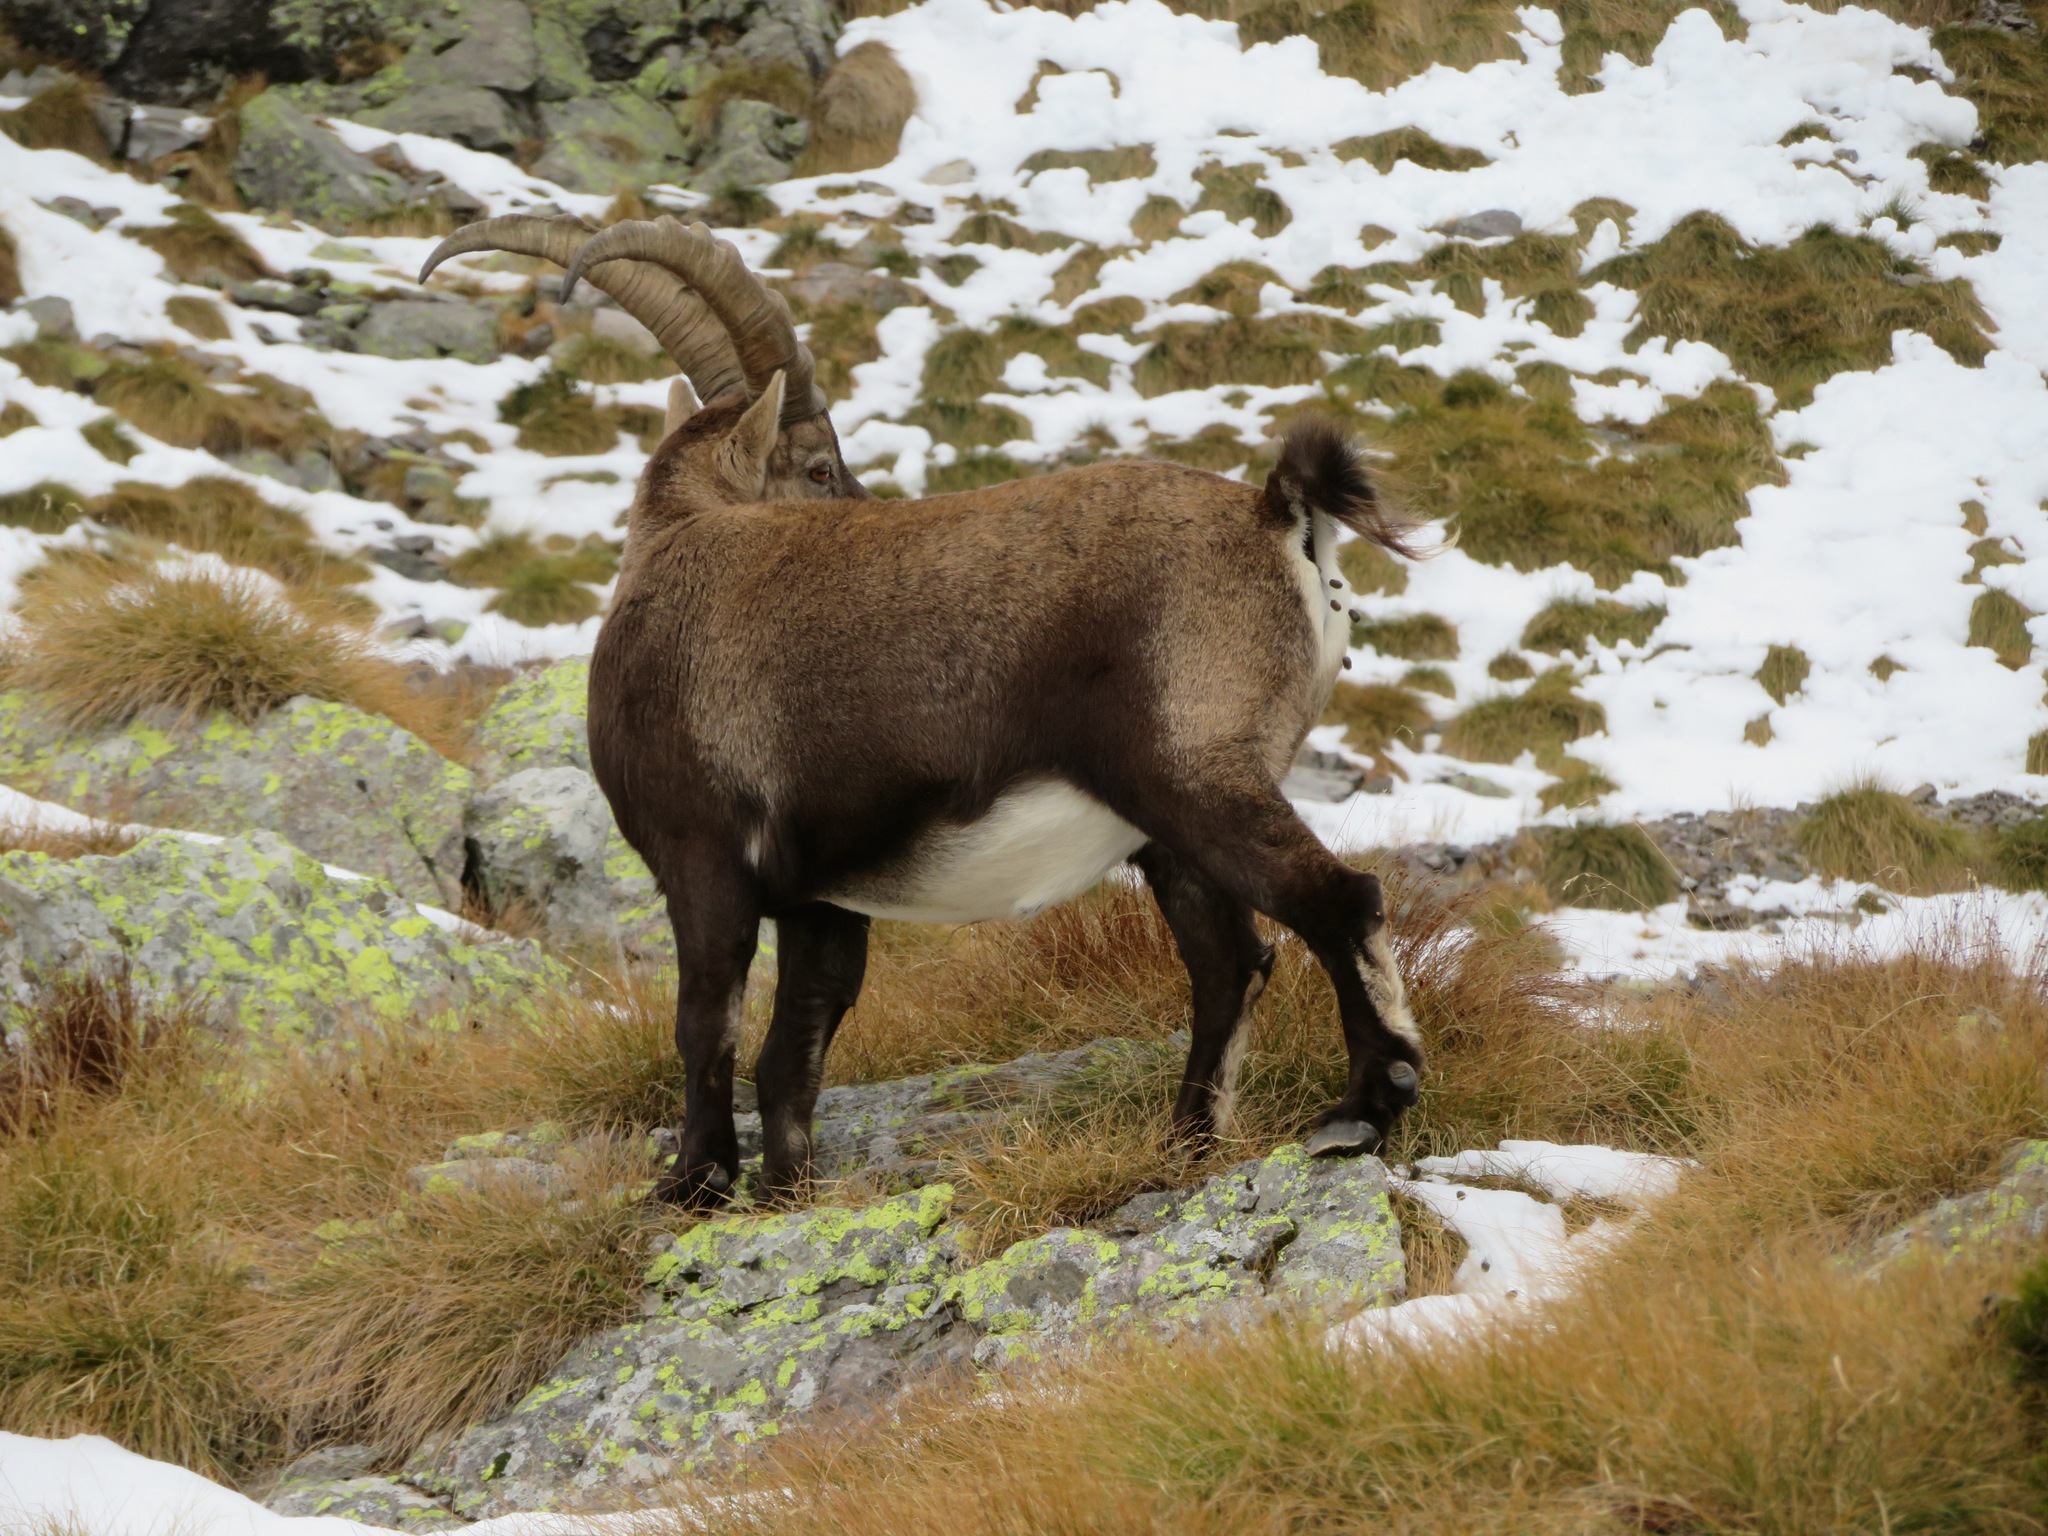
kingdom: Animalia
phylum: Chordata
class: Mammalia
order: Artiodactyla
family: Bovidae
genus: Capra
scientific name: Capra ibex
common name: Alpine ibex
